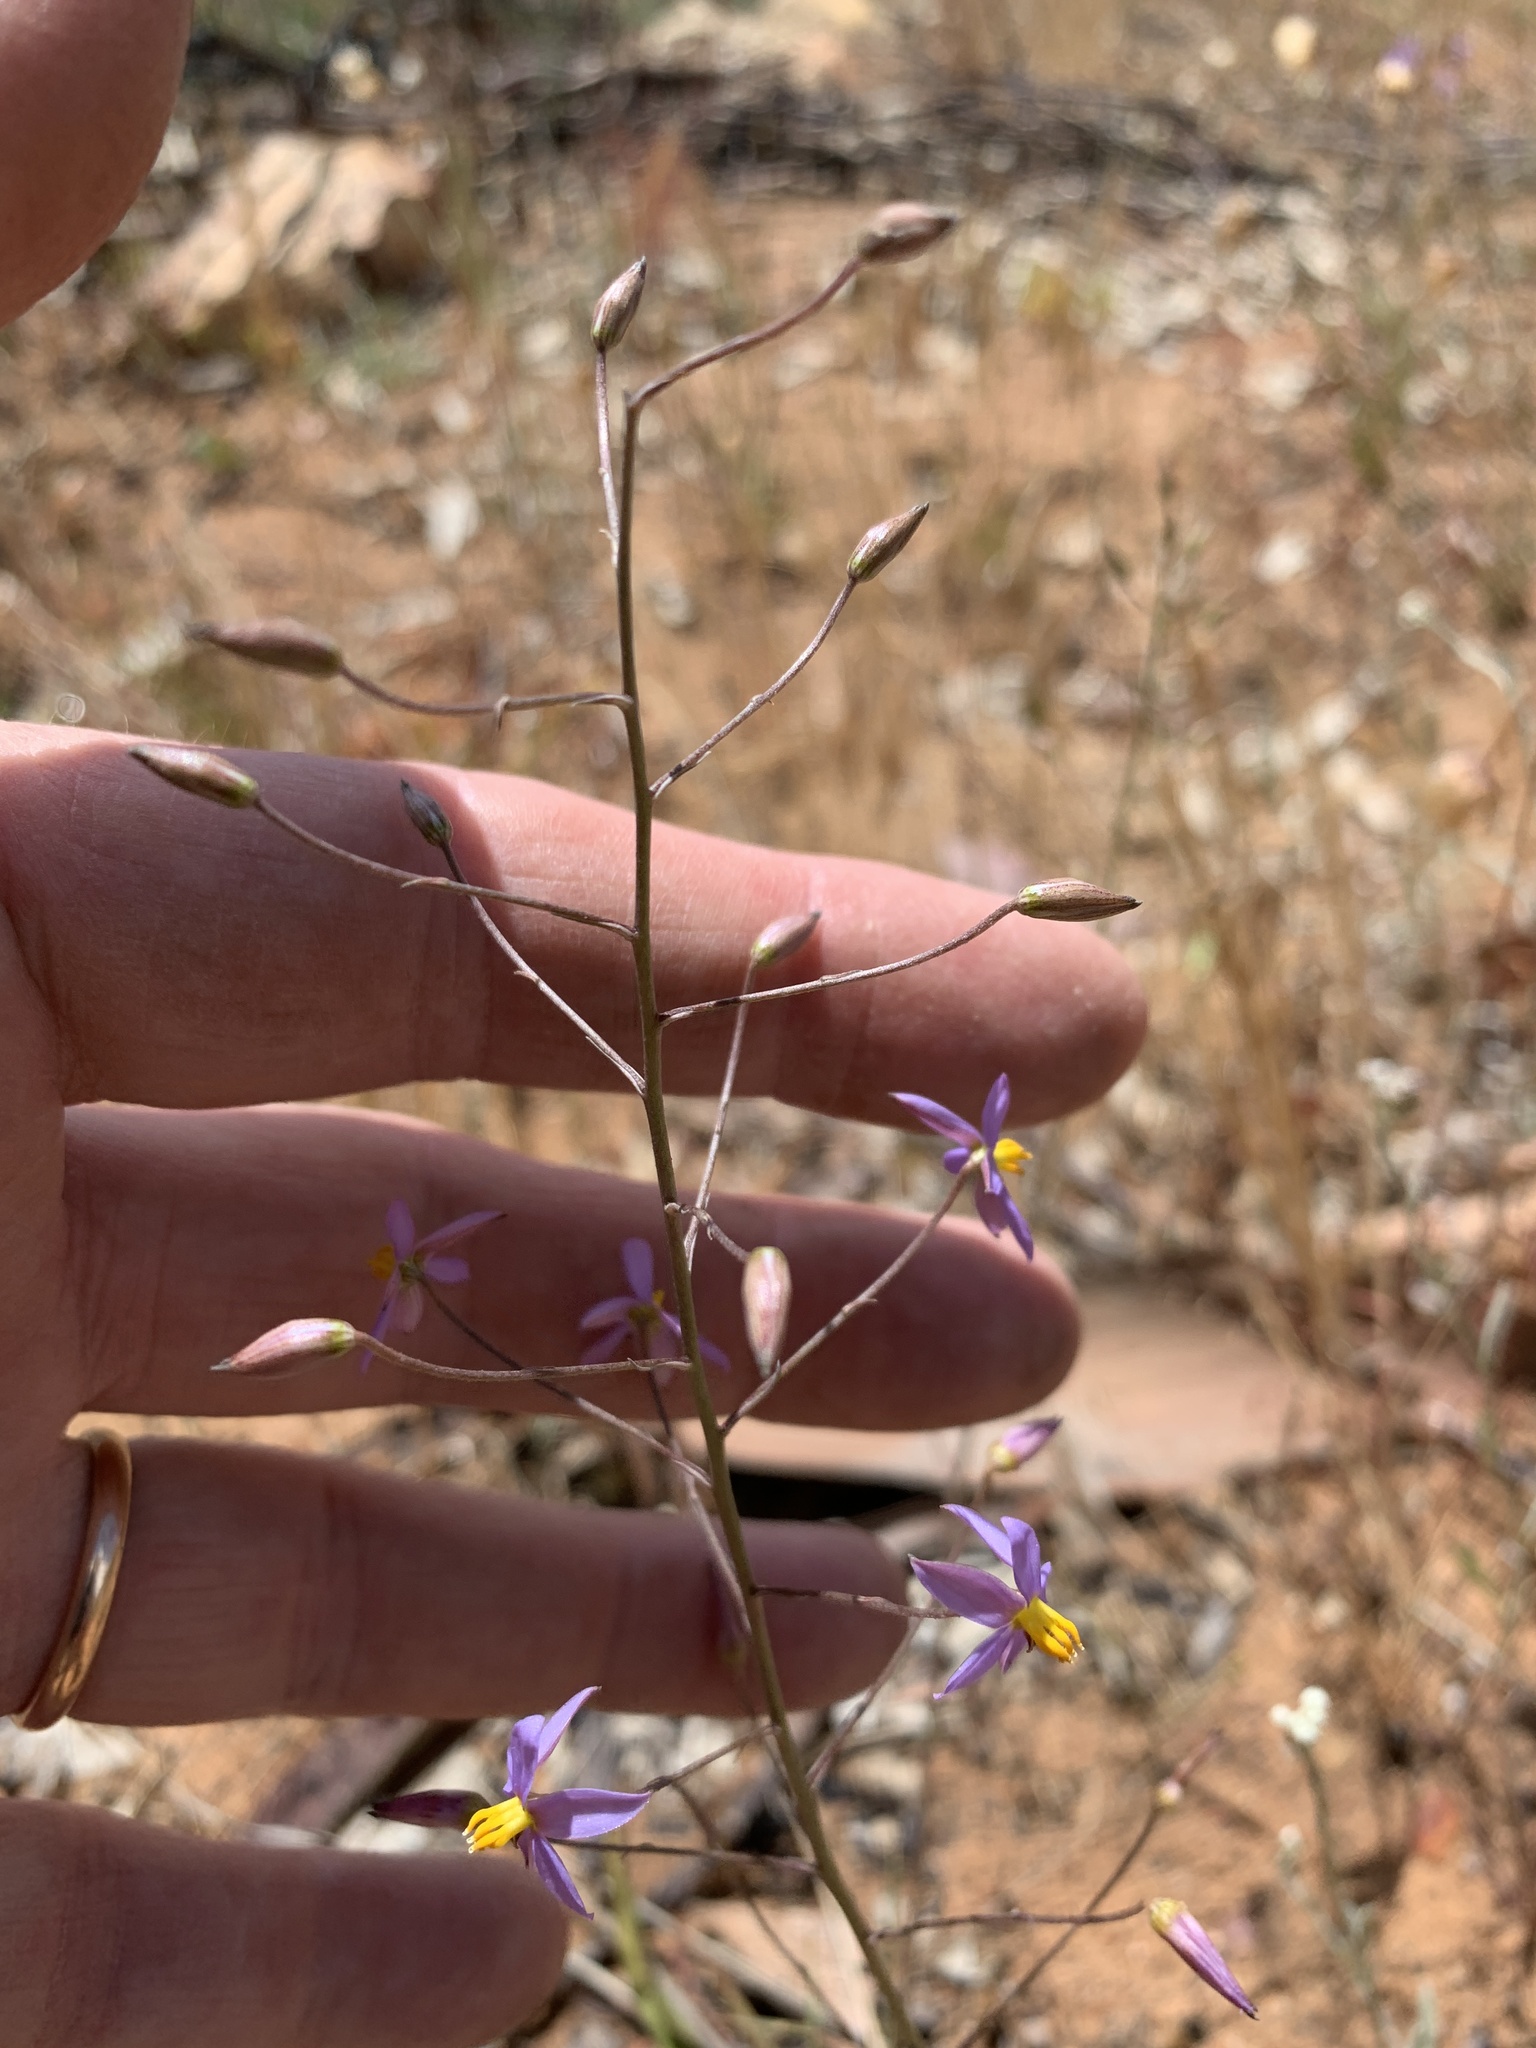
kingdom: Plantae
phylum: Tracheophyta
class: Liliopsida
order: Asparagales
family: Tecophilaeaceae
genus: Cyanella
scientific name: Cyanella hyacinthoides
